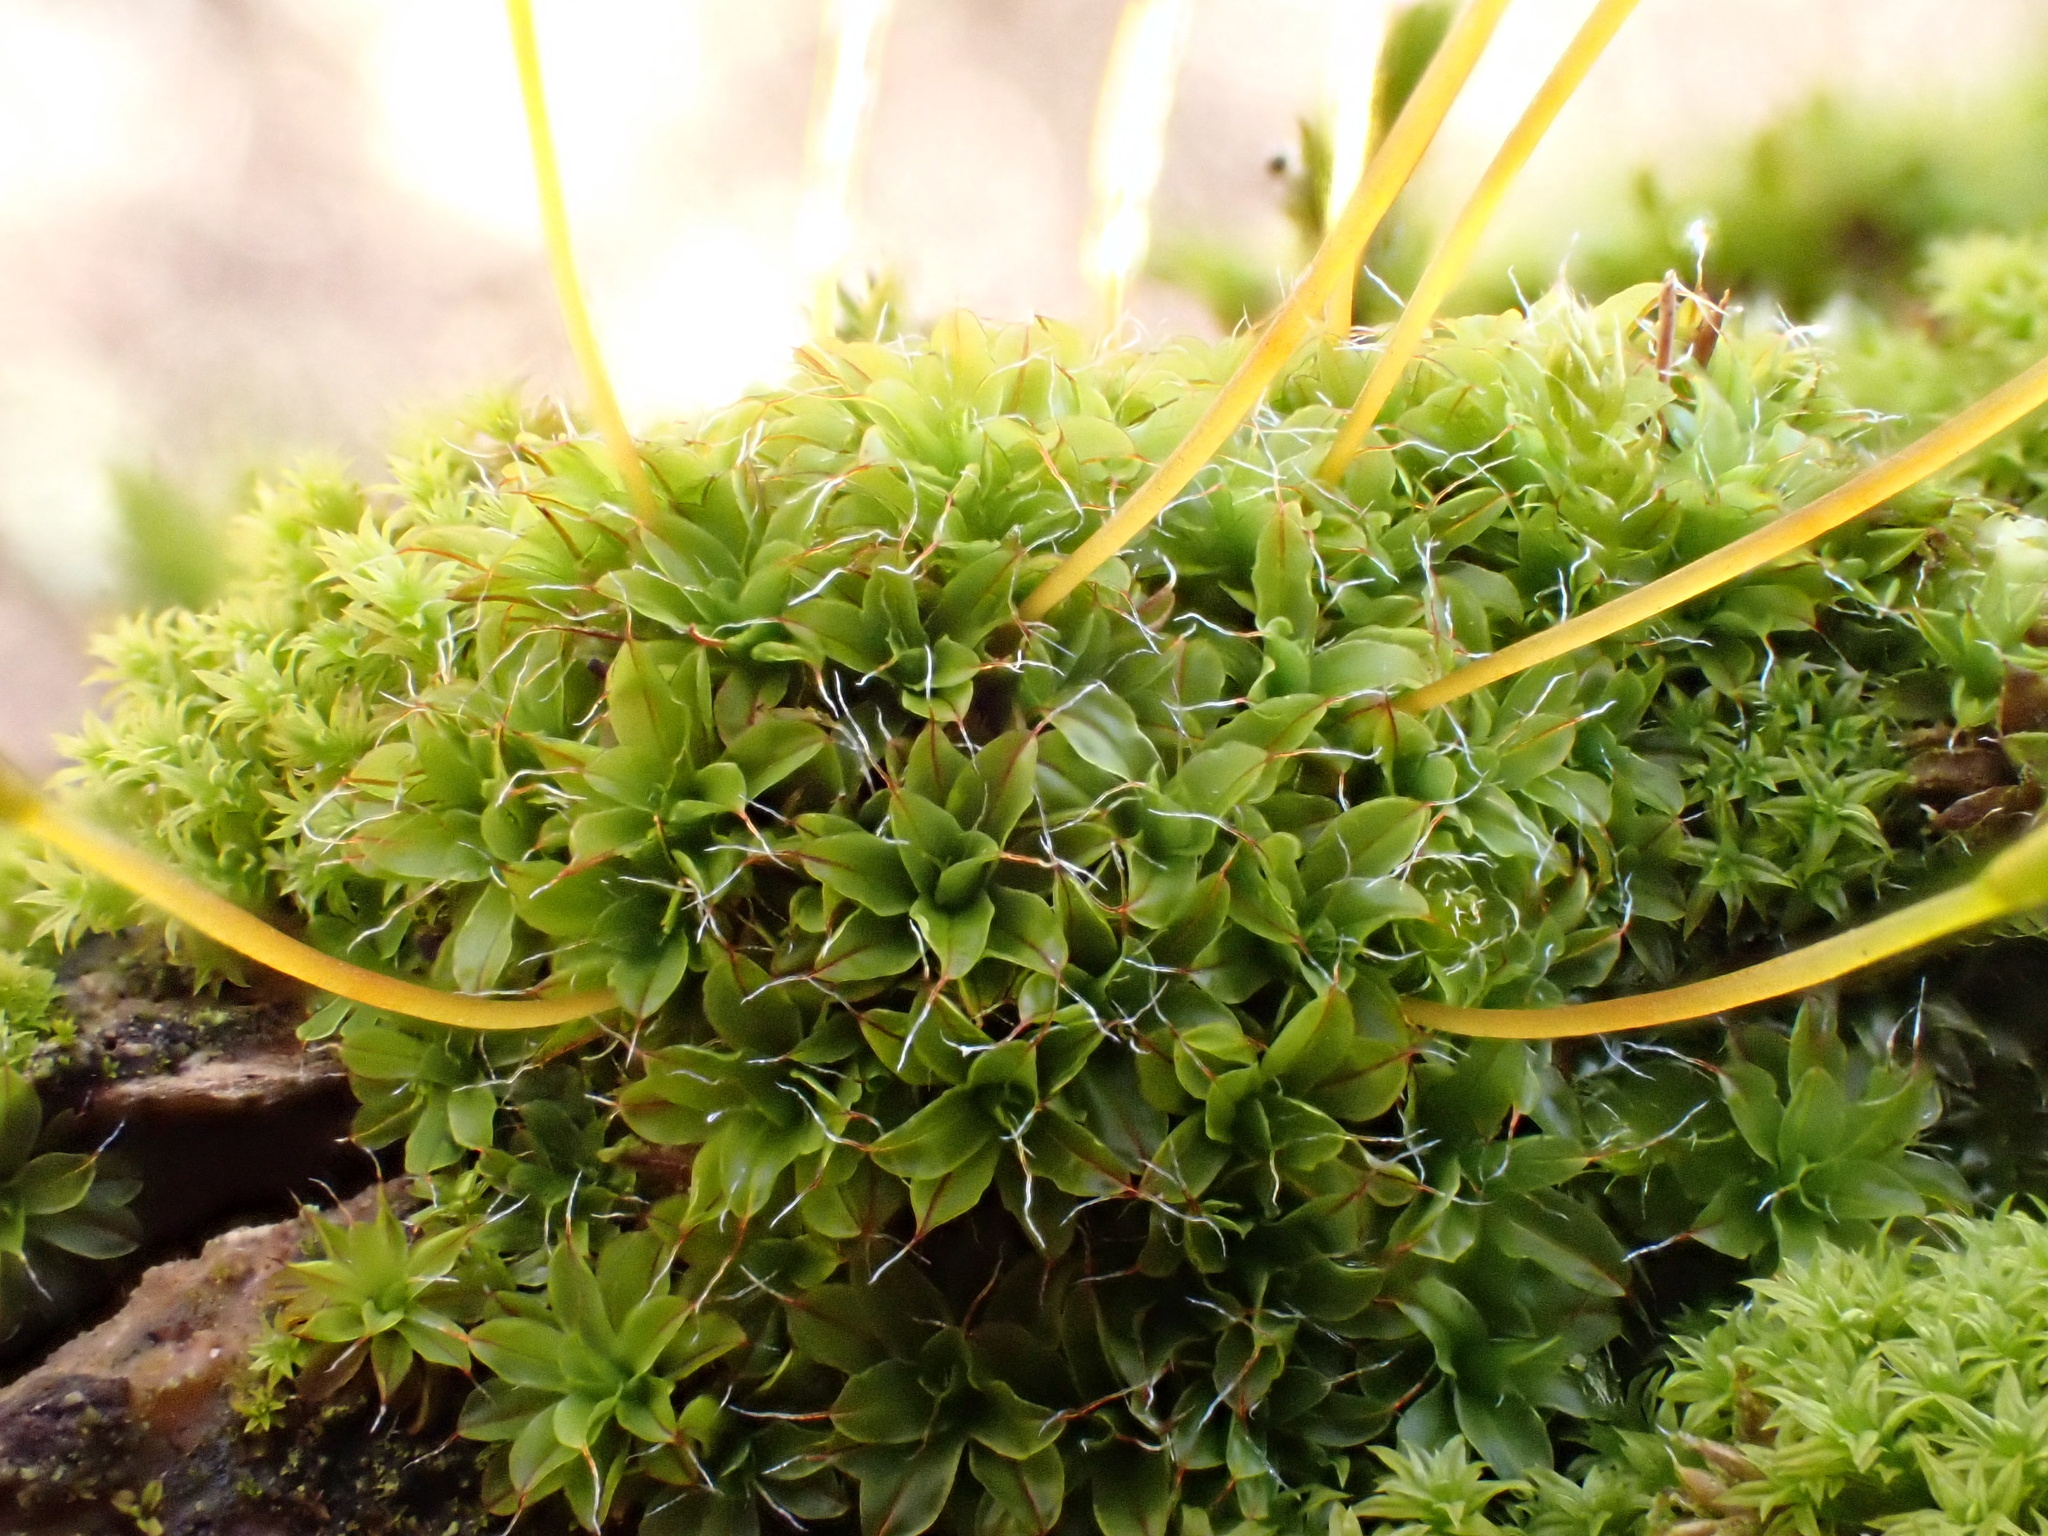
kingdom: Plantae
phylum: Bryophyta
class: Bryopsida
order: Pottiales
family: Pottiaceae
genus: Syntrichia
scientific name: Syntrichia virescens
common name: Lesser screw-moss
